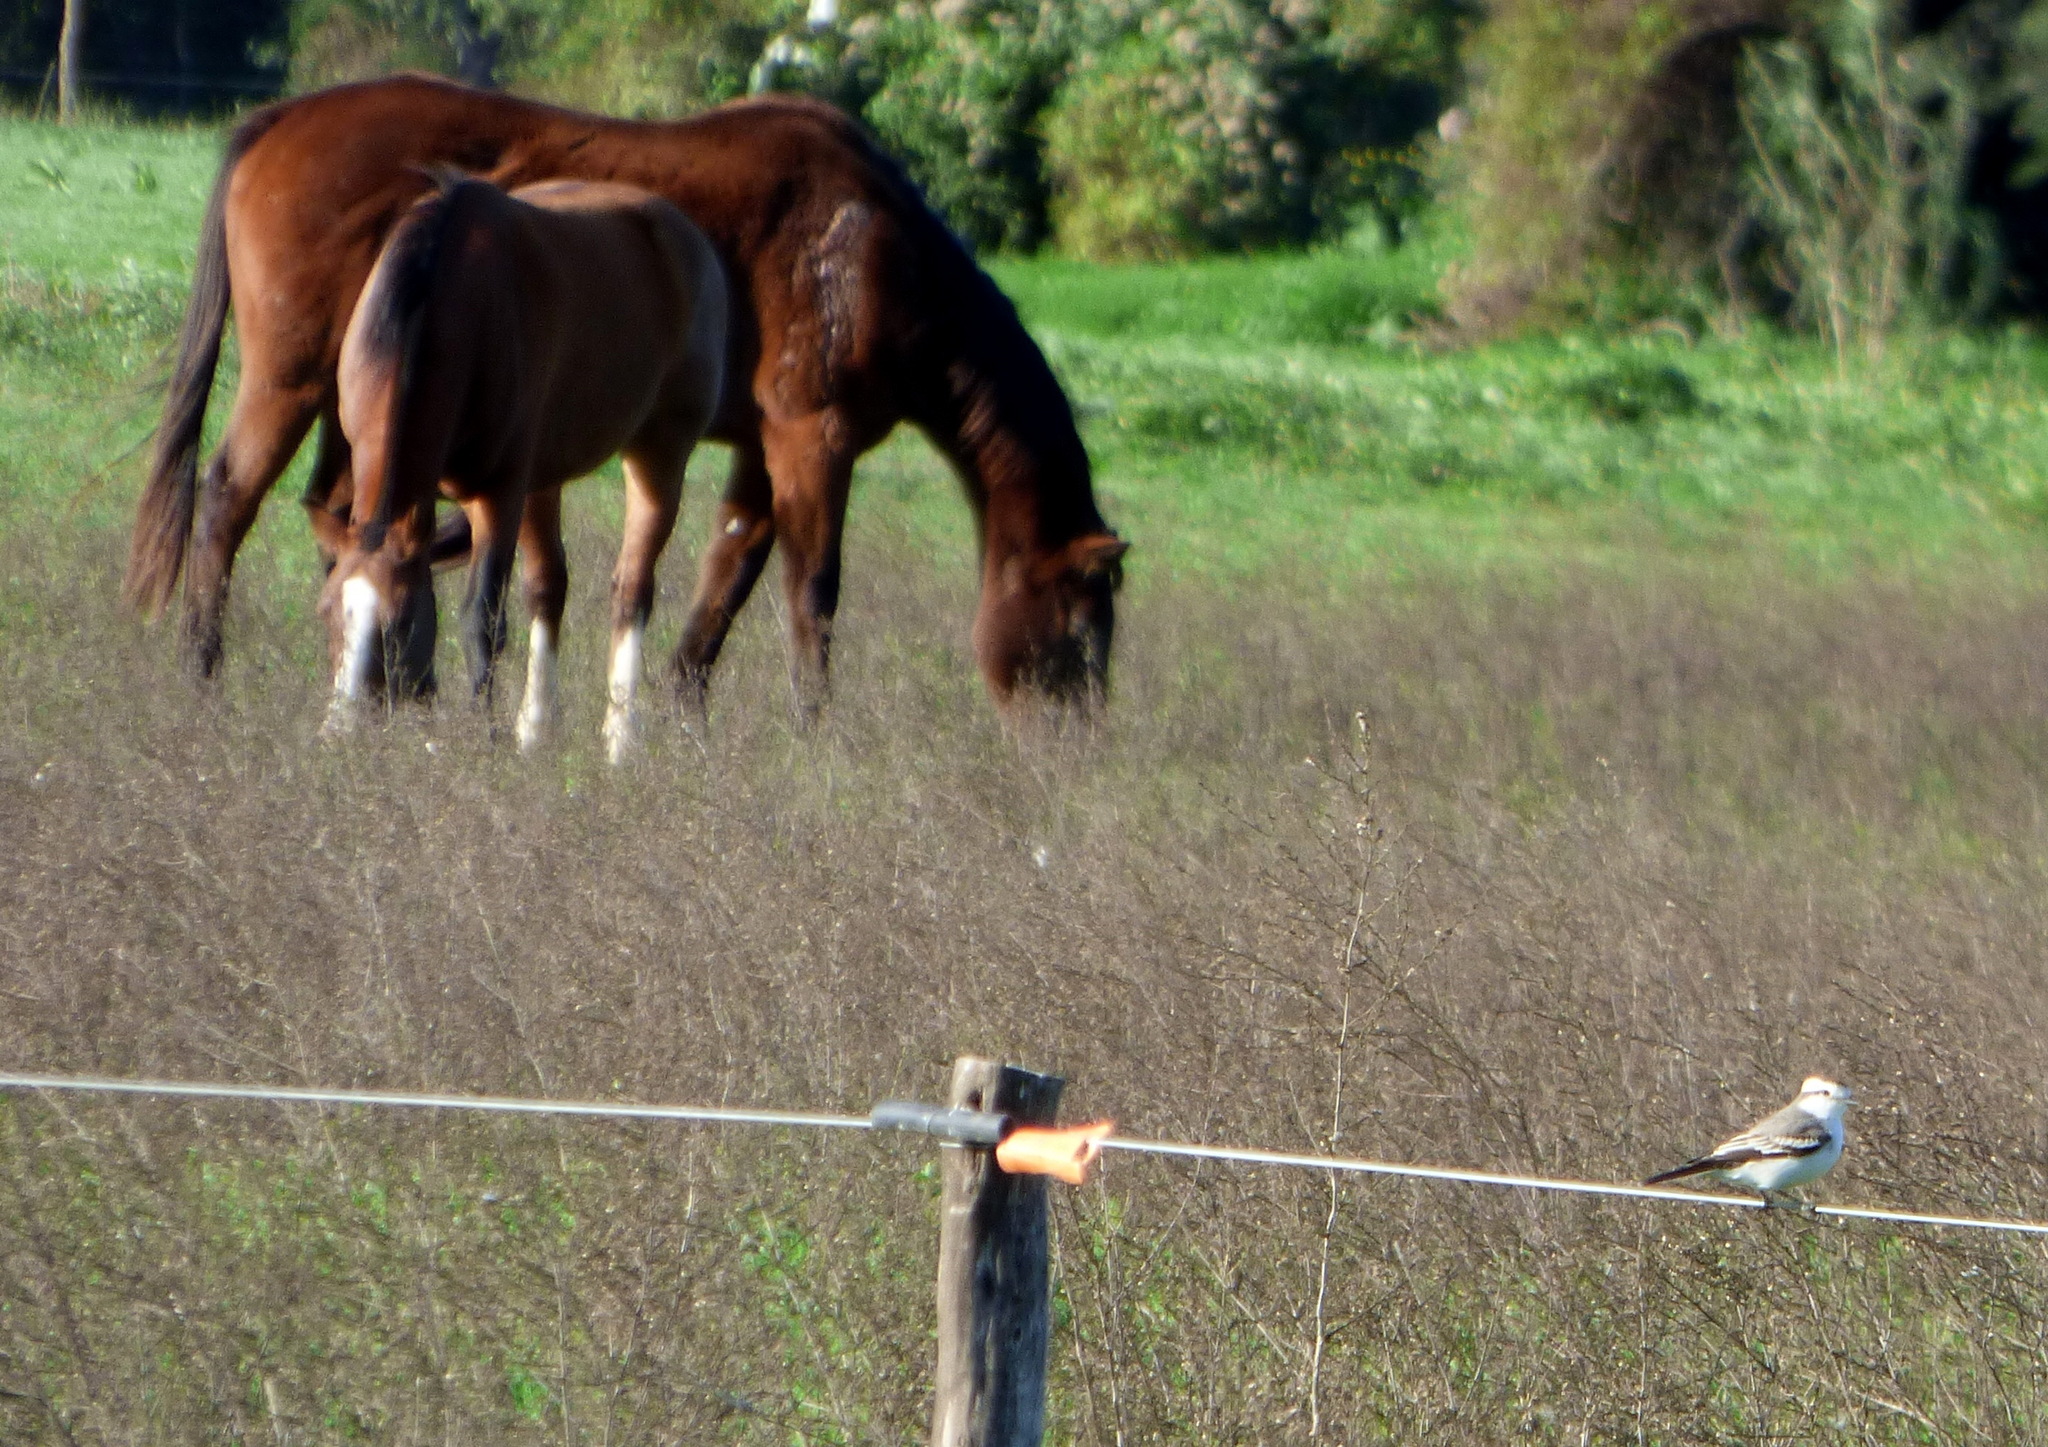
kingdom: Animalia
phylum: Chordata
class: Aves
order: Passeriformes
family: Tyrannidae
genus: Xolmis
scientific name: Xolmis coronatus
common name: Black-crowned monjita
